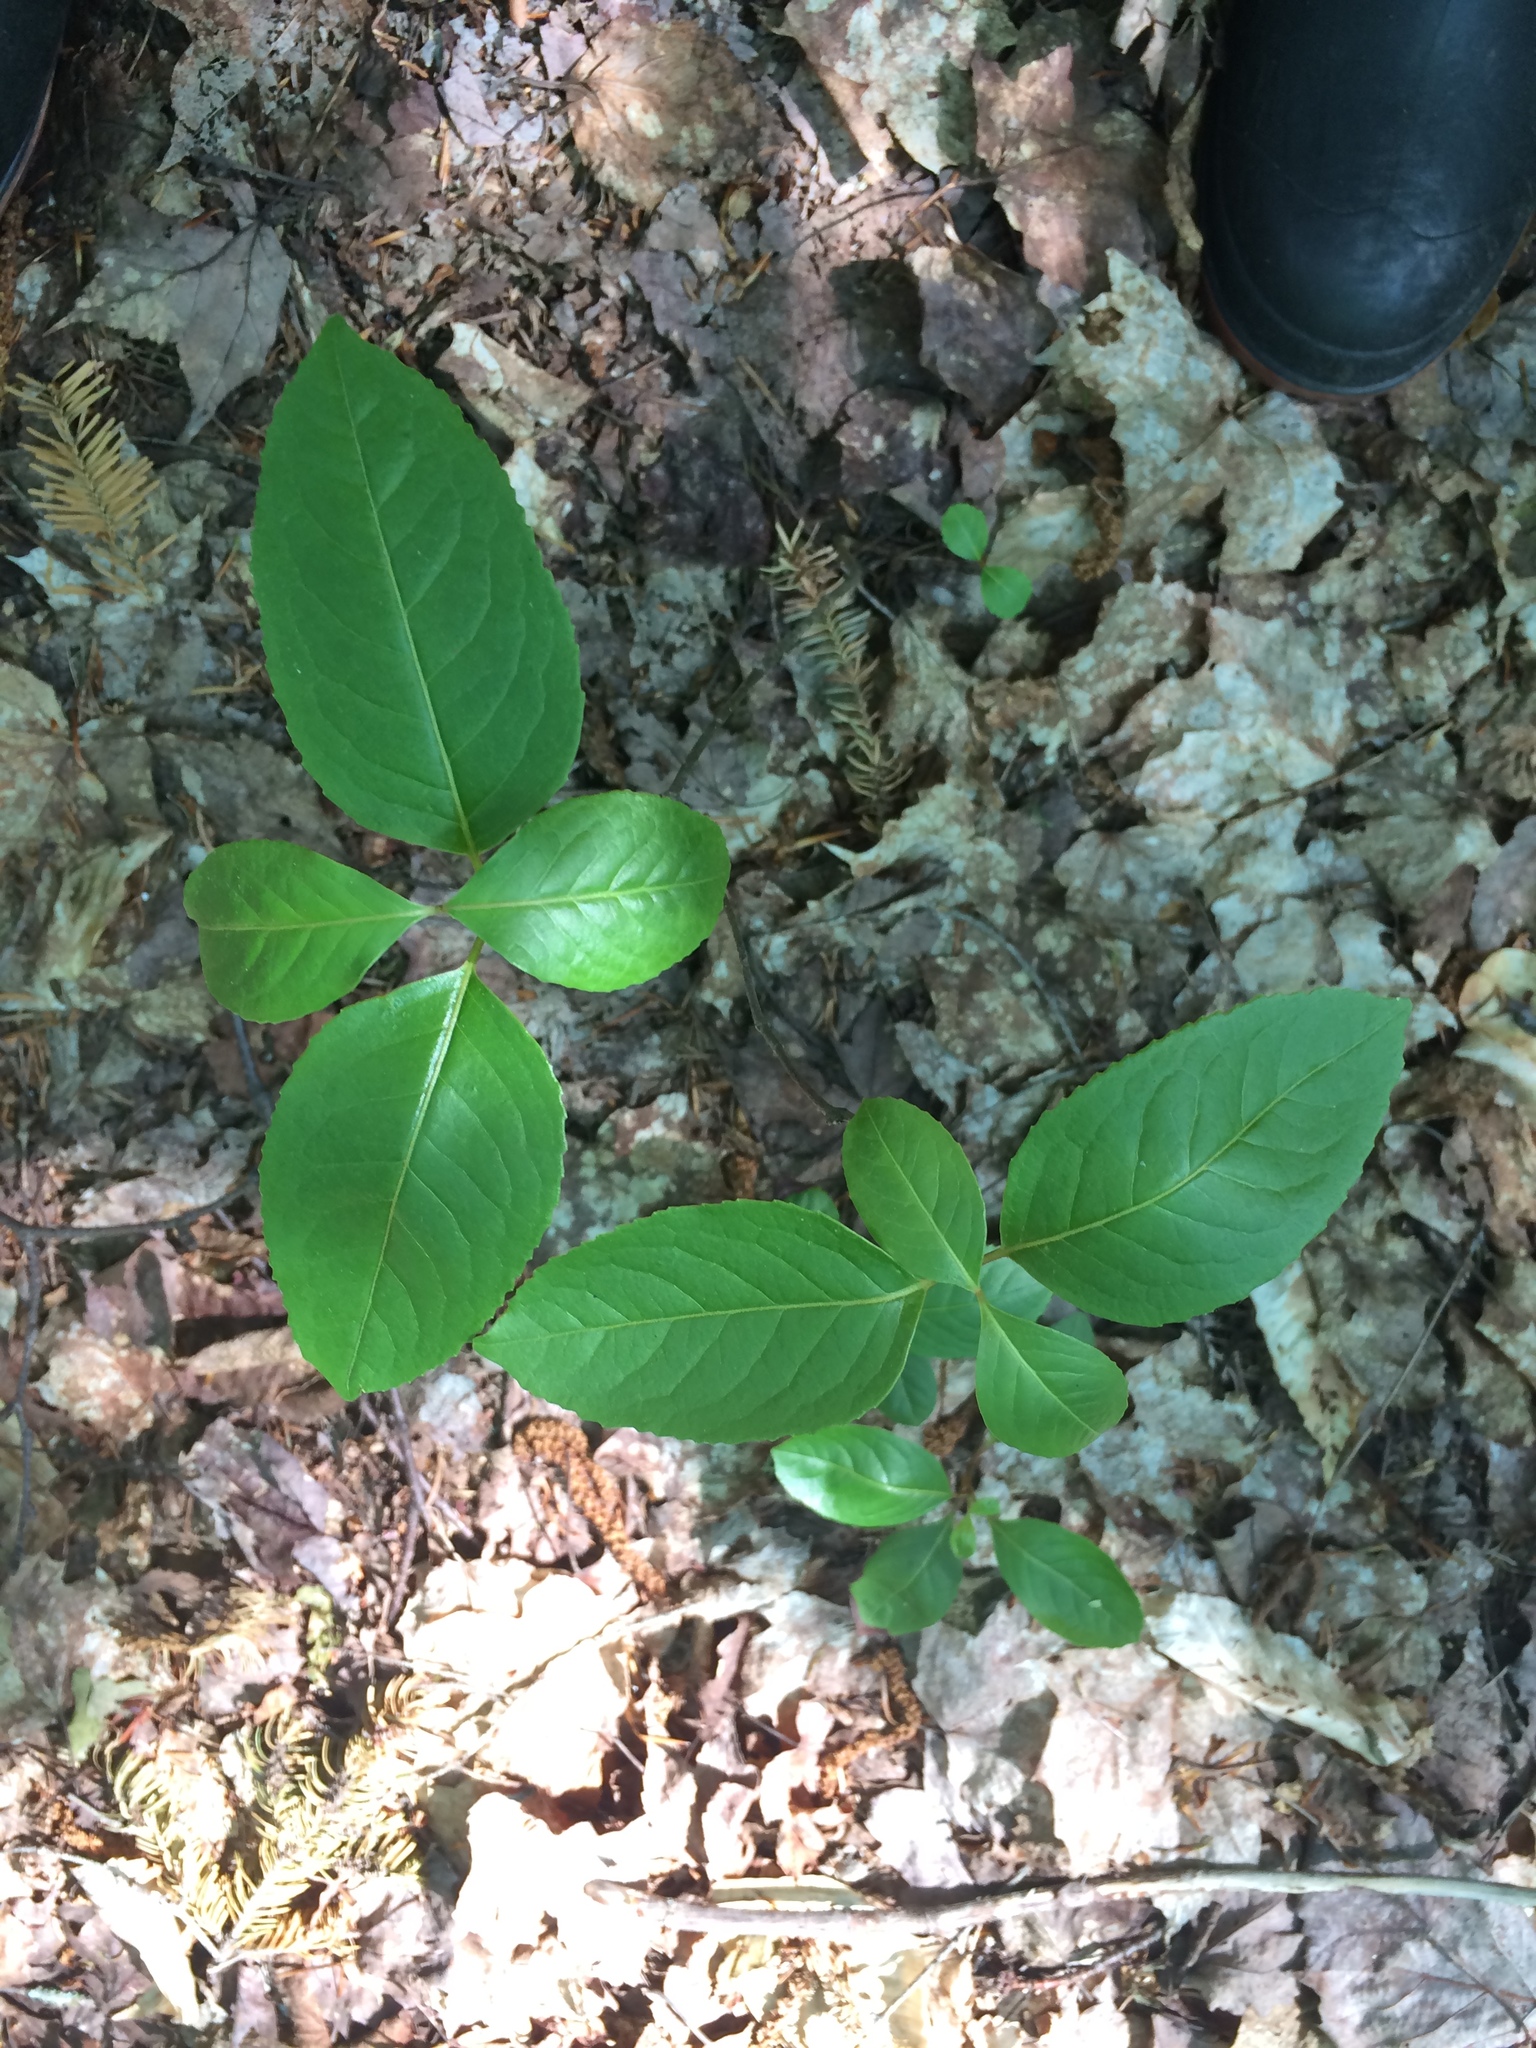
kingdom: Plantae
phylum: Tracheophyta
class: Magnoliopsida
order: Dipsacales
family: Viburnaceae
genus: Viburnum
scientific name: Viburnum cassinoides
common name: Swamp haw
